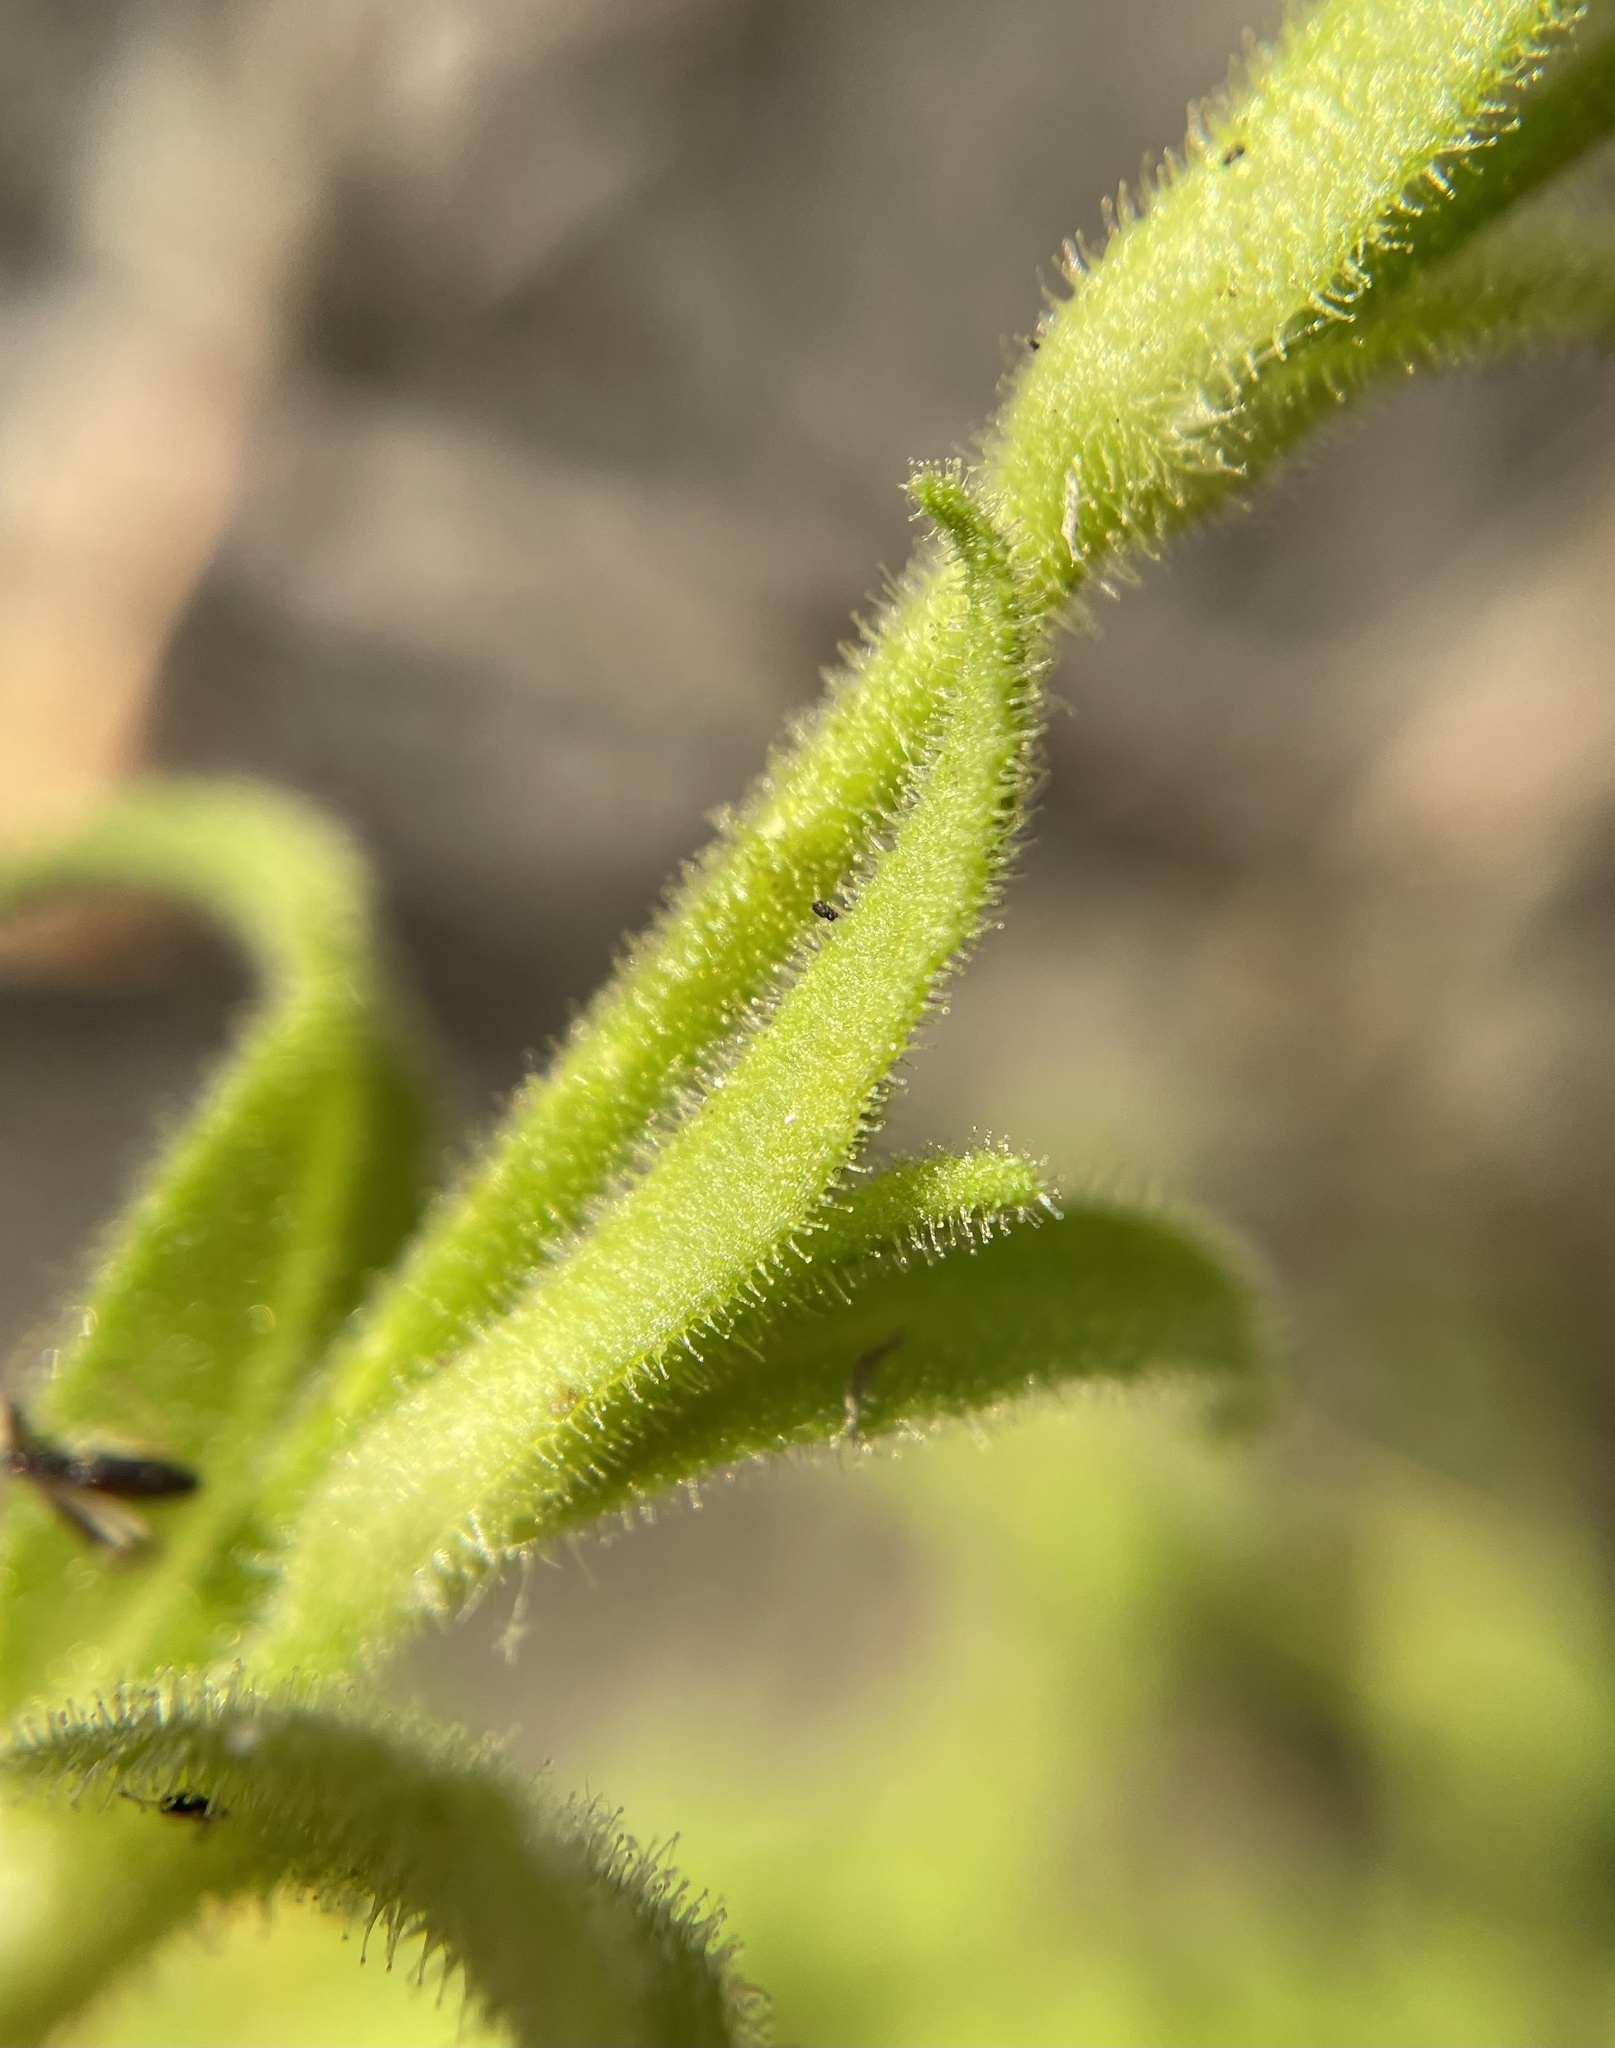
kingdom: Plantae
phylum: Tracheophyta
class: Magnoliopsida
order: Caryophyllales
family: Caryophyllaceae
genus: Silene
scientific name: Silene undulata
